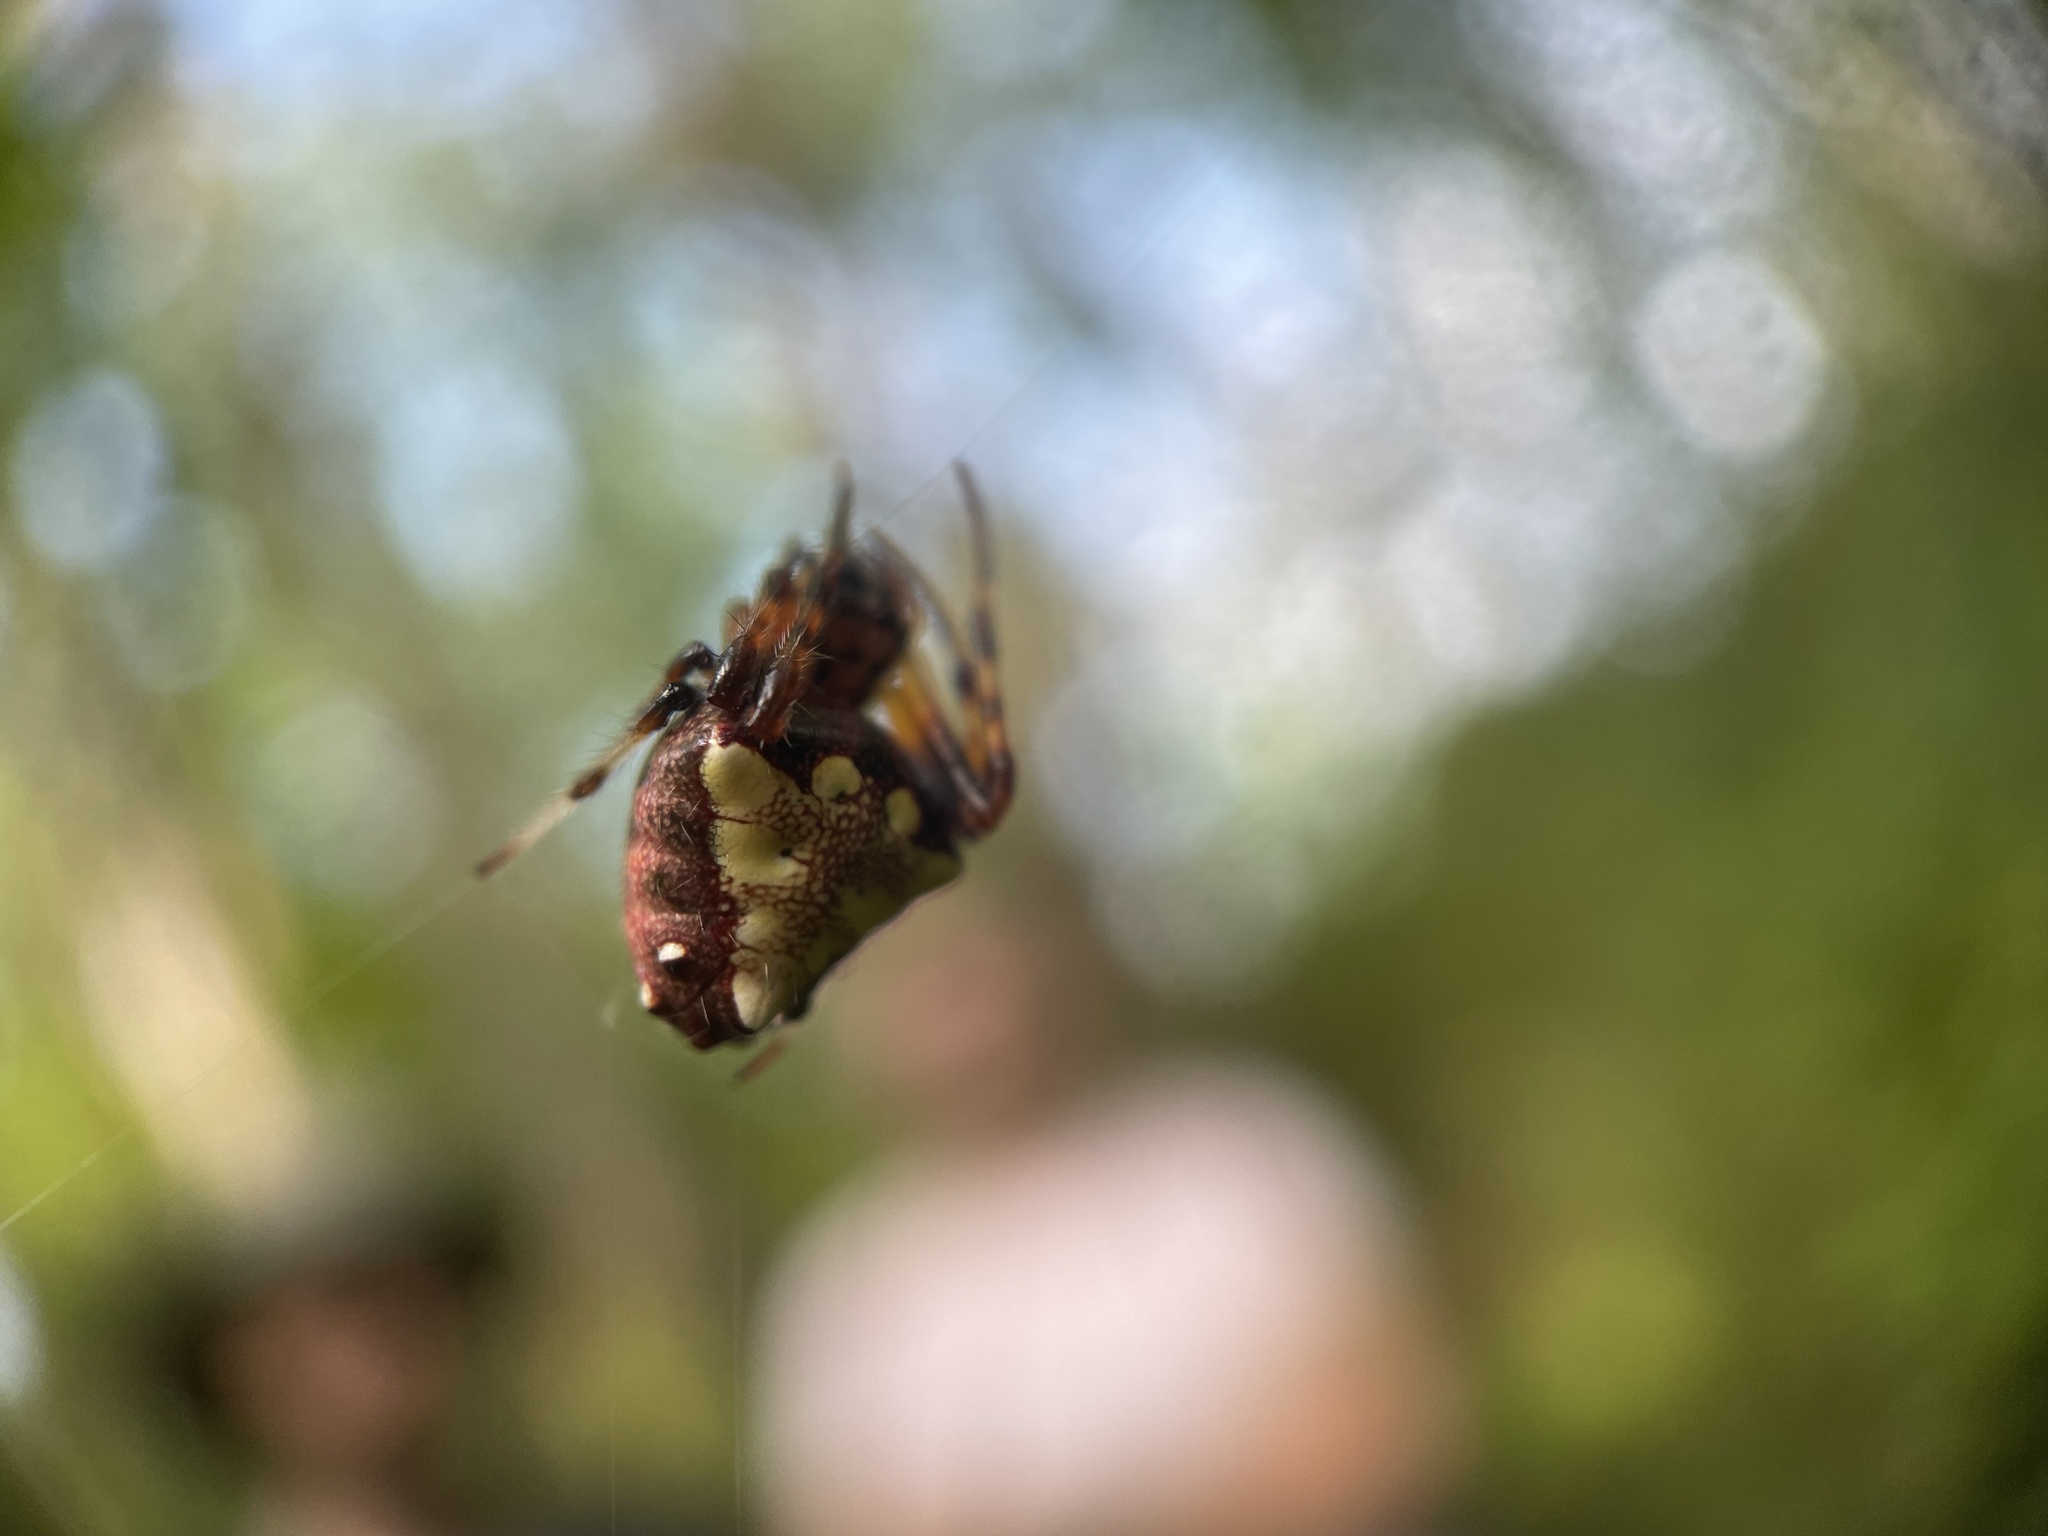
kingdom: Animalia
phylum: Arthropoda
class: Arachnida
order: Araneae
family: Araneidae
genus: Verrucosa
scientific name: Verrucosa arenata
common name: Orb weavers
